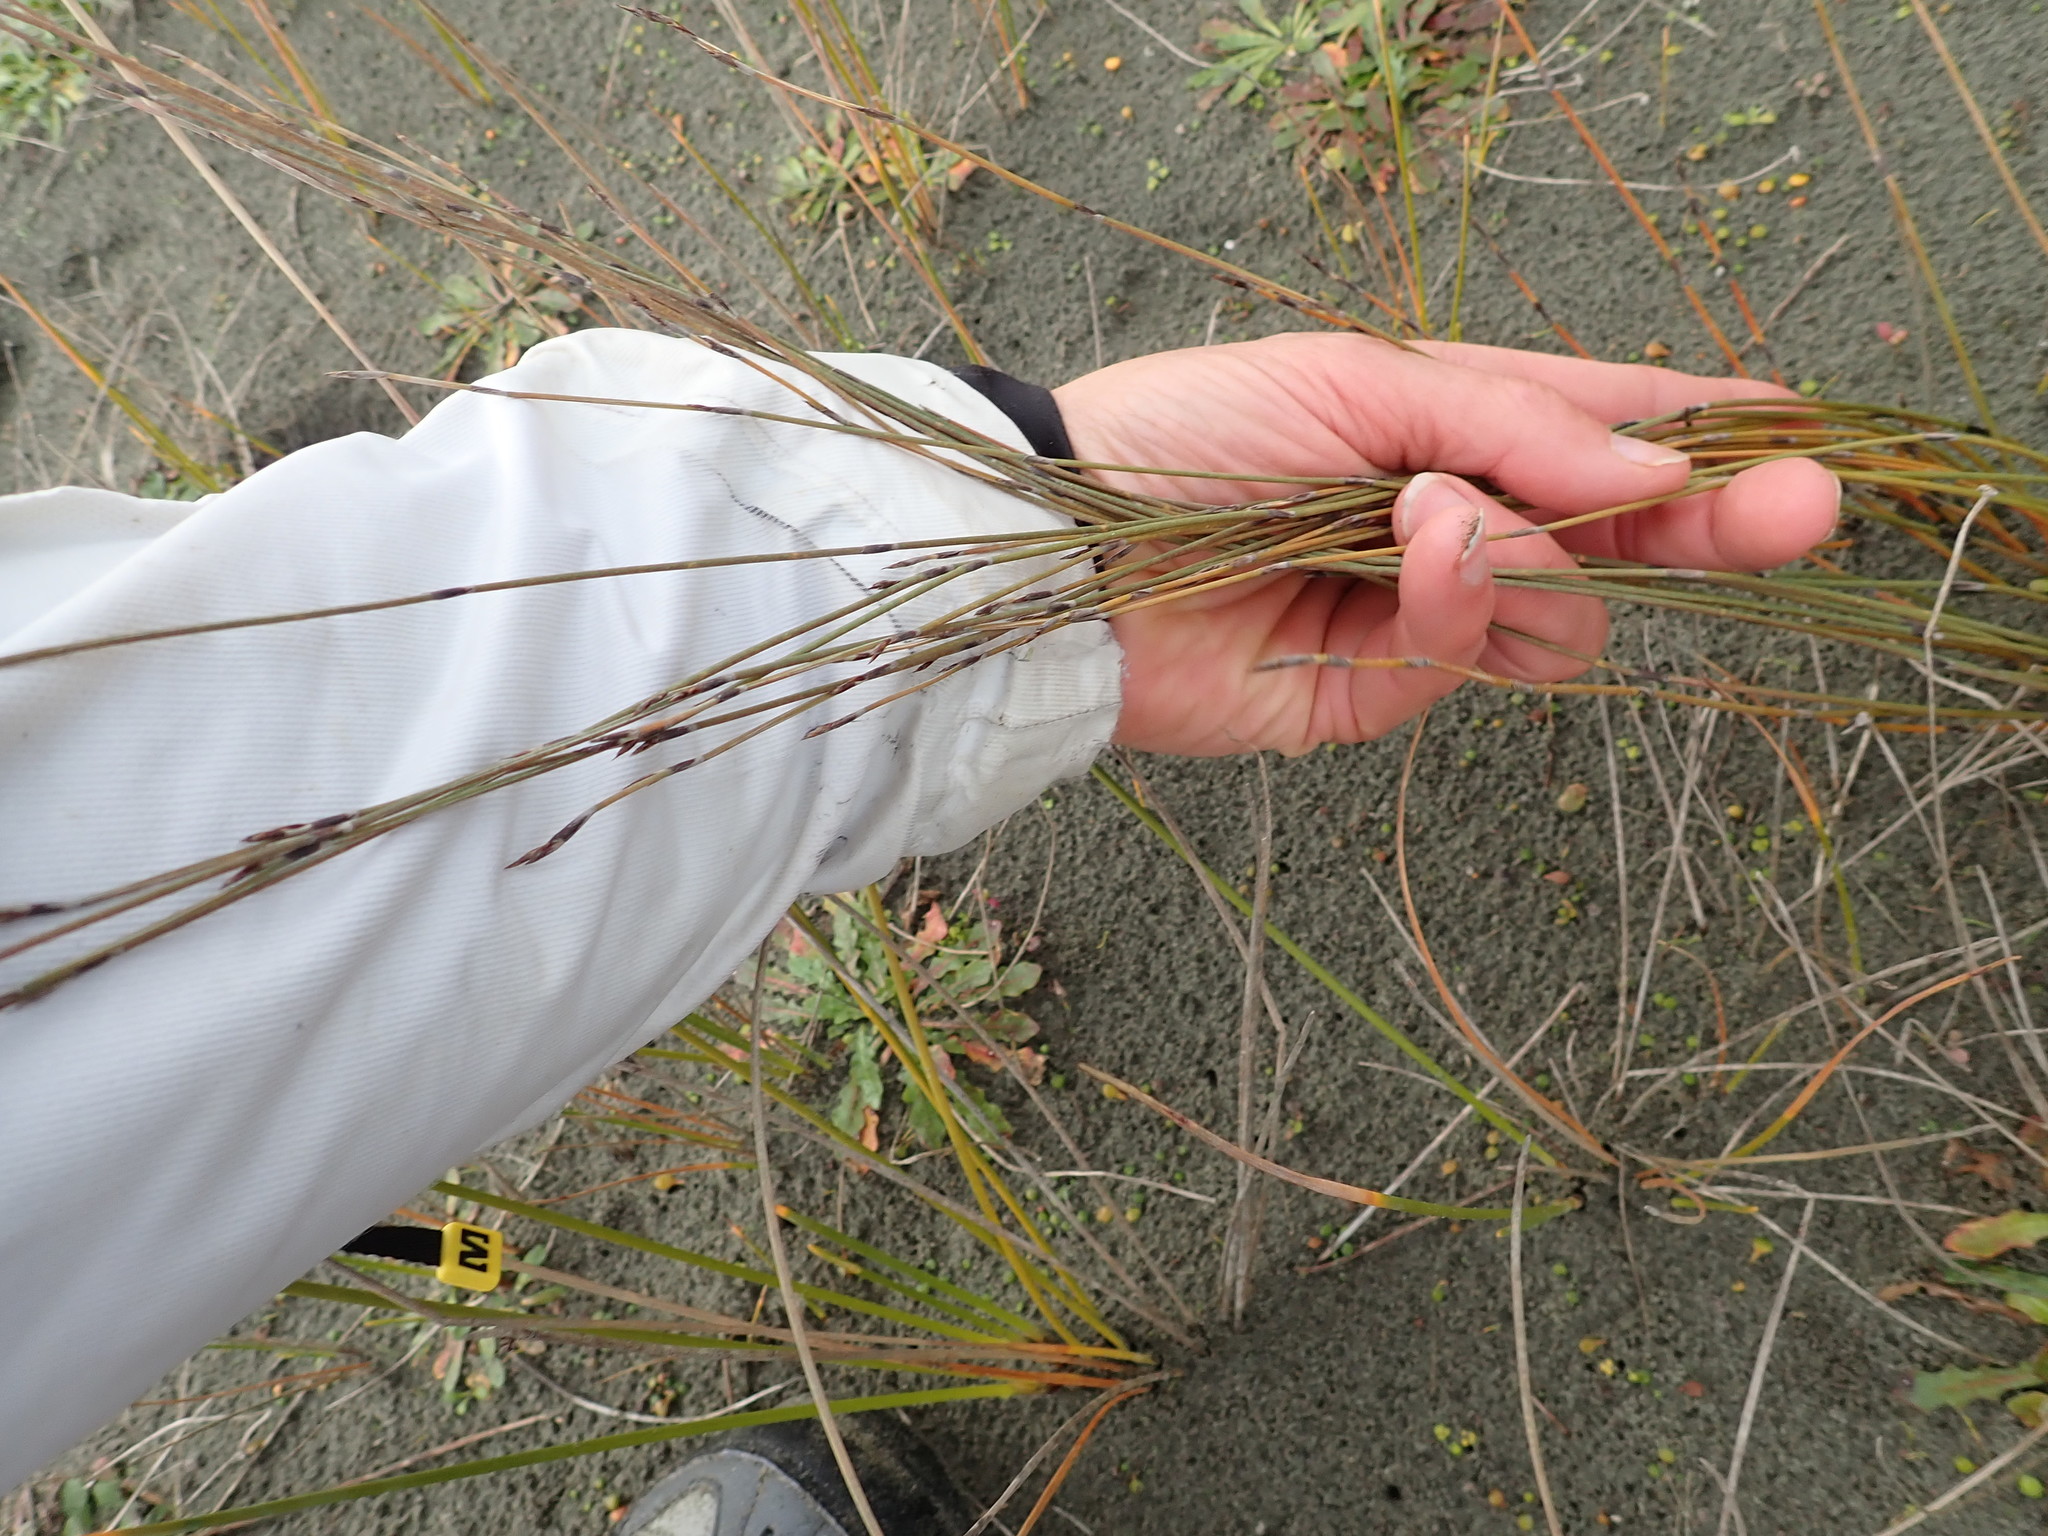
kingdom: Plantae
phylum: Tracheophyta
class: Liliopsida
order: Poales
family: Restionaceae
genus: Apodasmia
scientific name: Apodasmia similis
